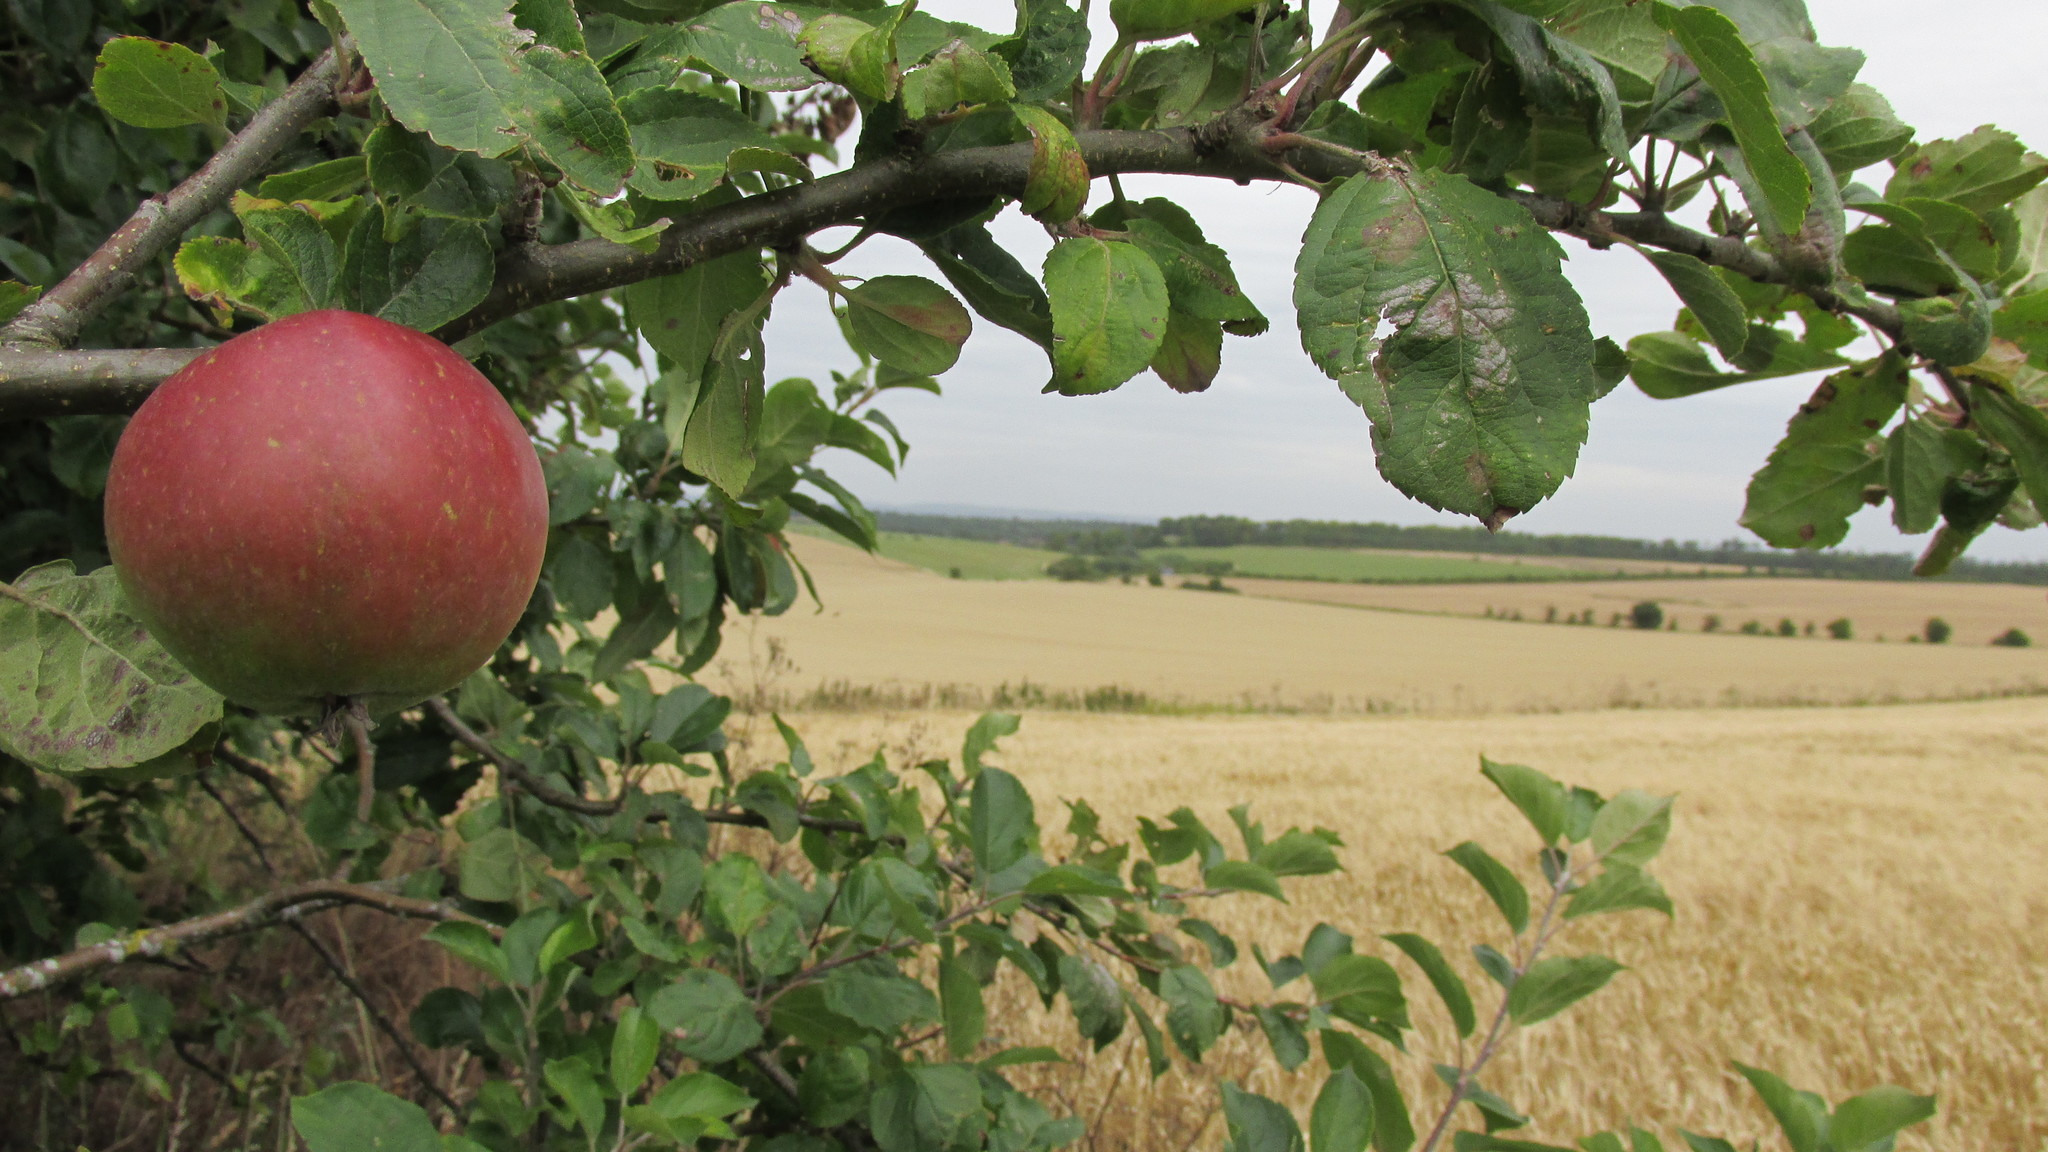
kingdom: Plantae
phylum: Tracheophyta
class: Magnoliopsida
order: Rosales
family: Rosaceae
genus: Malus
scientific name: Malus domestica
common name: Apple
